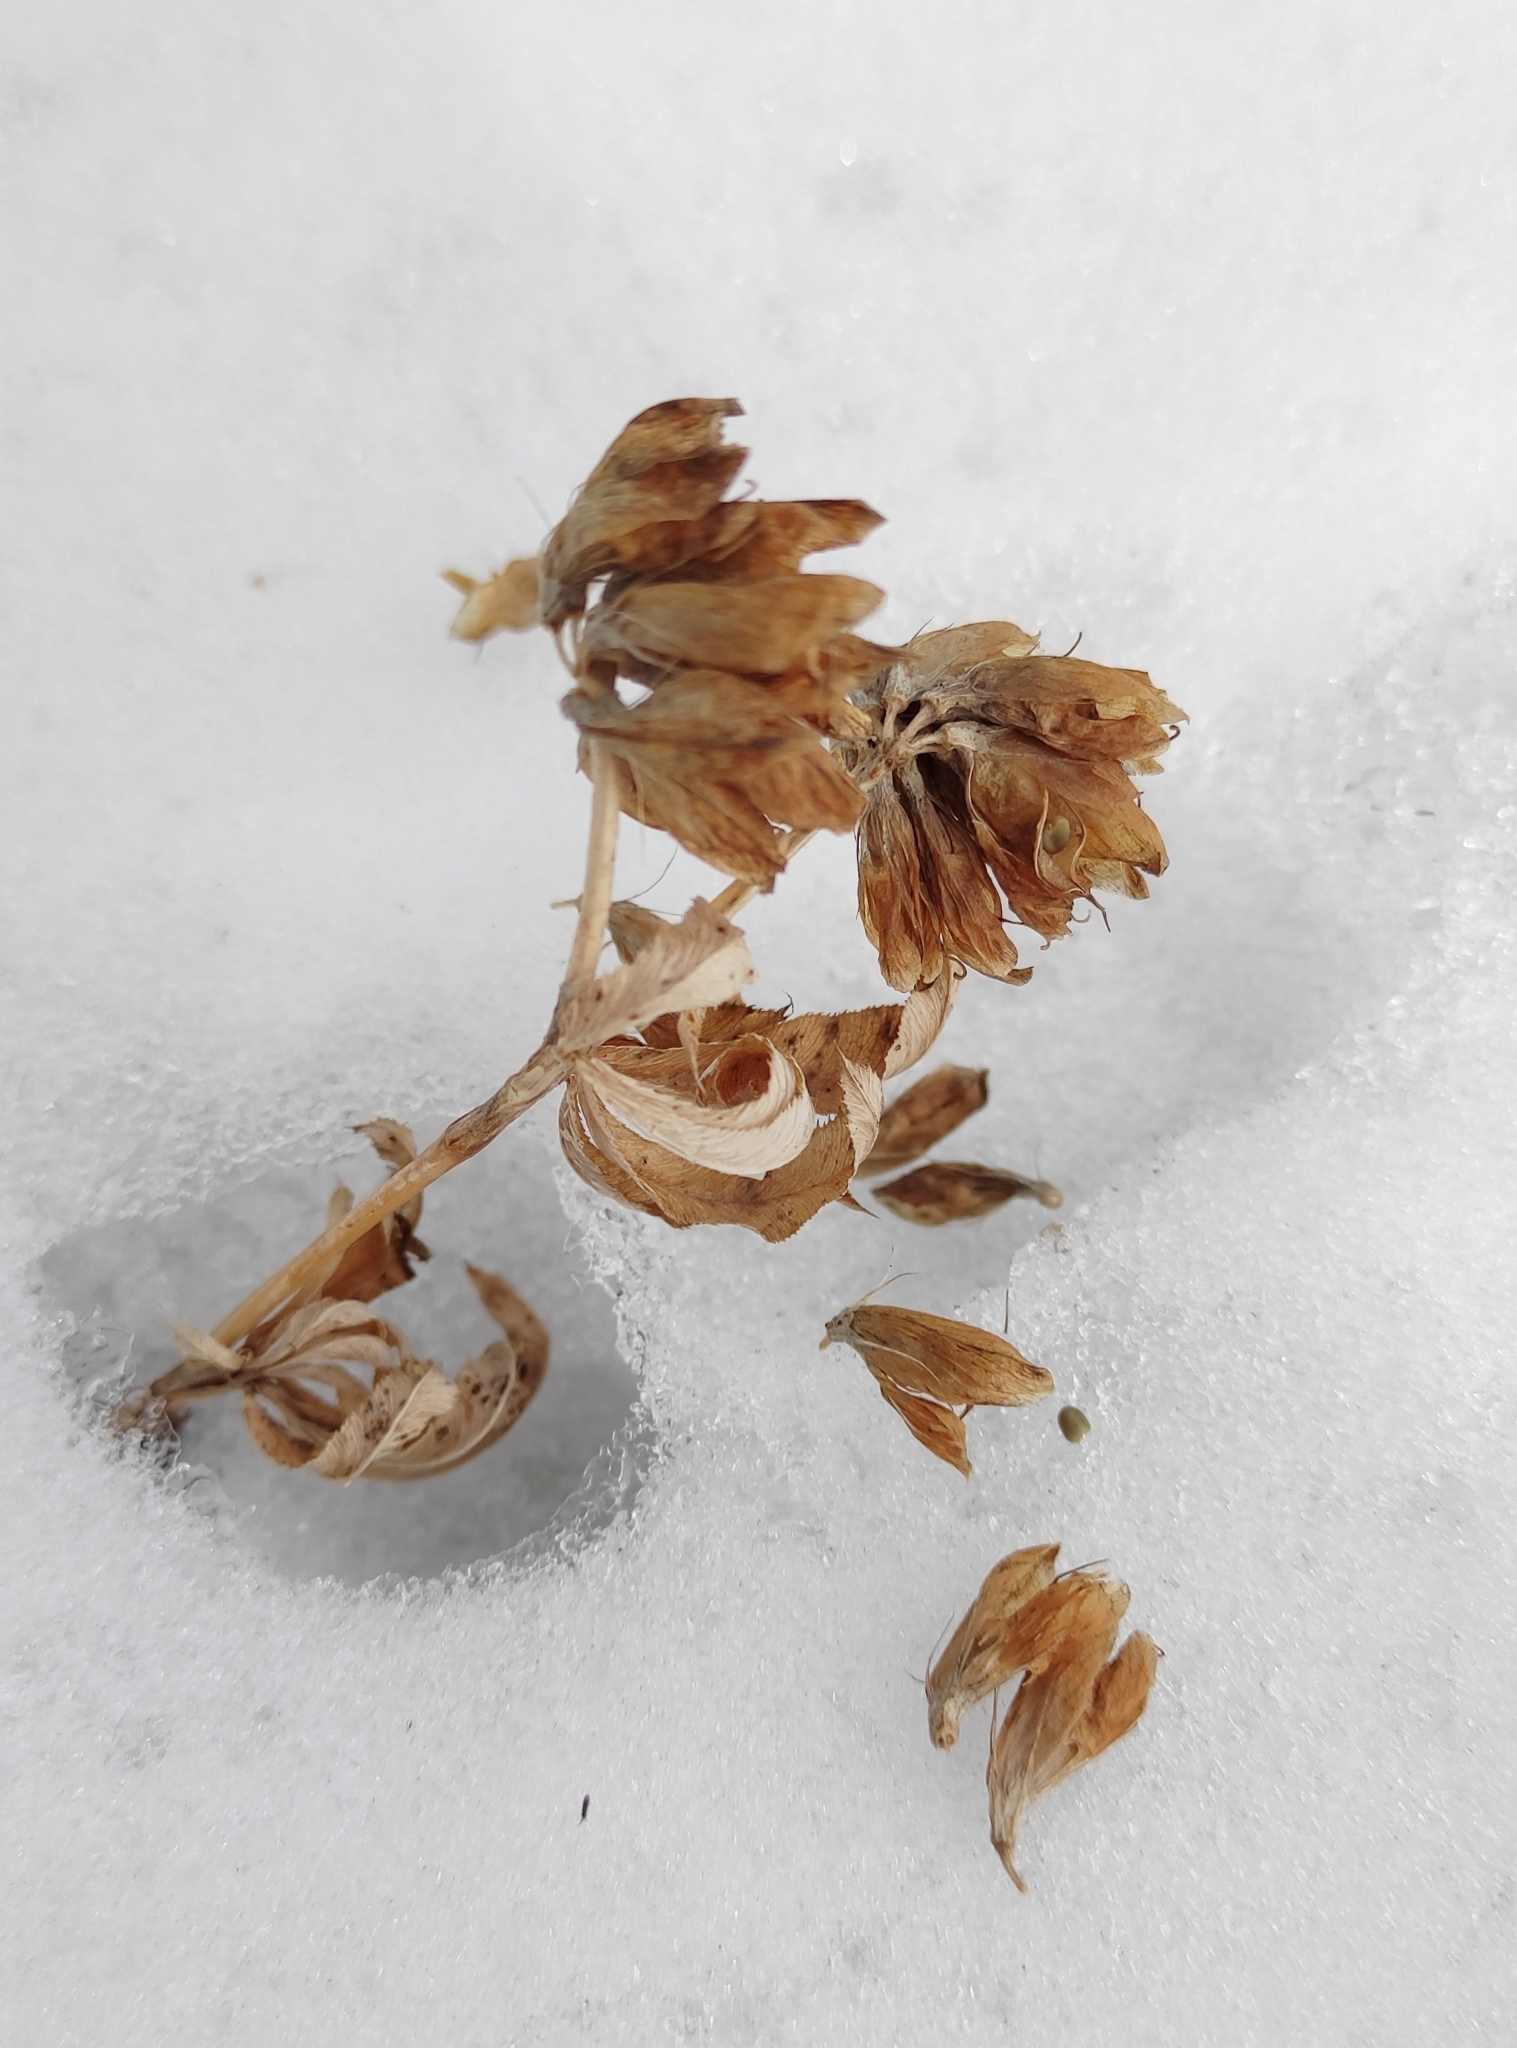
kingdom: Plantae
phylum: Tracheophyta
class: Magnoliopsida
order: Fabales
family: Fabaceae
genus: Trifolium
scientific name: Trifolium lupinaster
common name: Lupine clover
